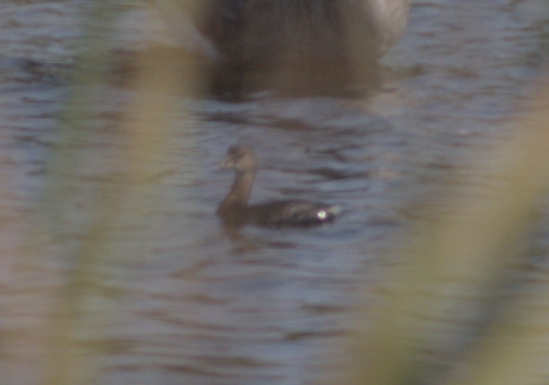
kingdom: Animalia
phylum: Chordata
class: Aves
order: Podicipediformes
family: Podicipedidae
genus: Podilymbus
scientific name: Podilymbus podiceps
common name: Pied-billed grebe
